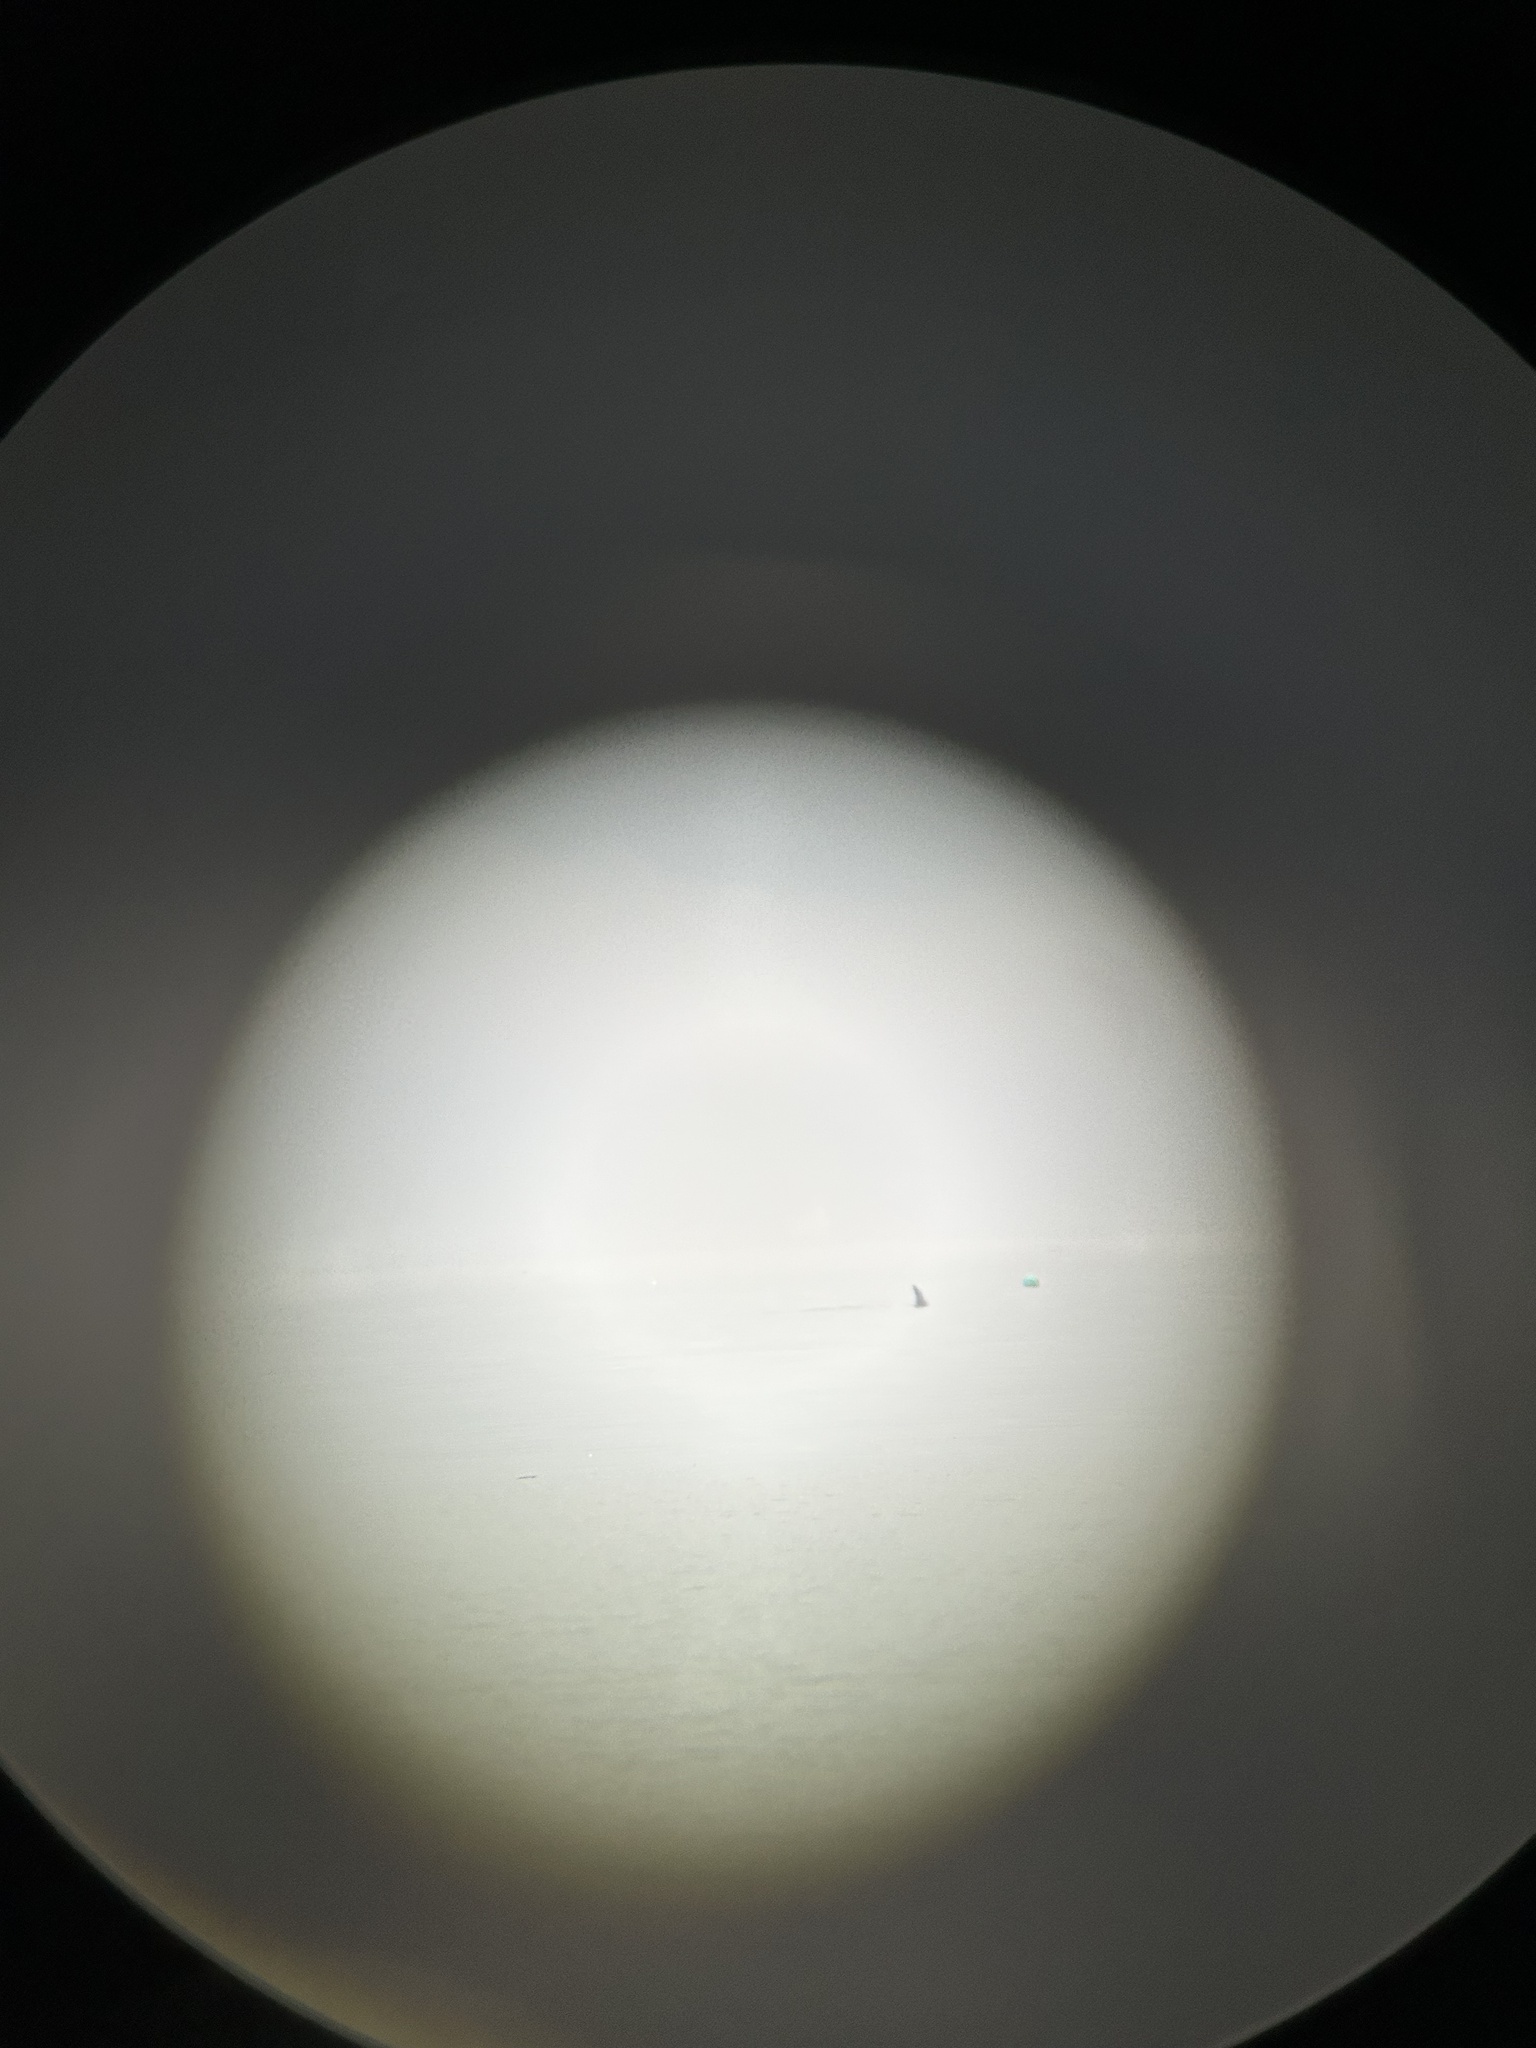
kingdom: Animalia
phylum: Chordata
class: Mammalia
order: Cetacea
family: Delphinidae
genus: Orcinus
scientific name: Orcinus orca
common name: Killer whale
